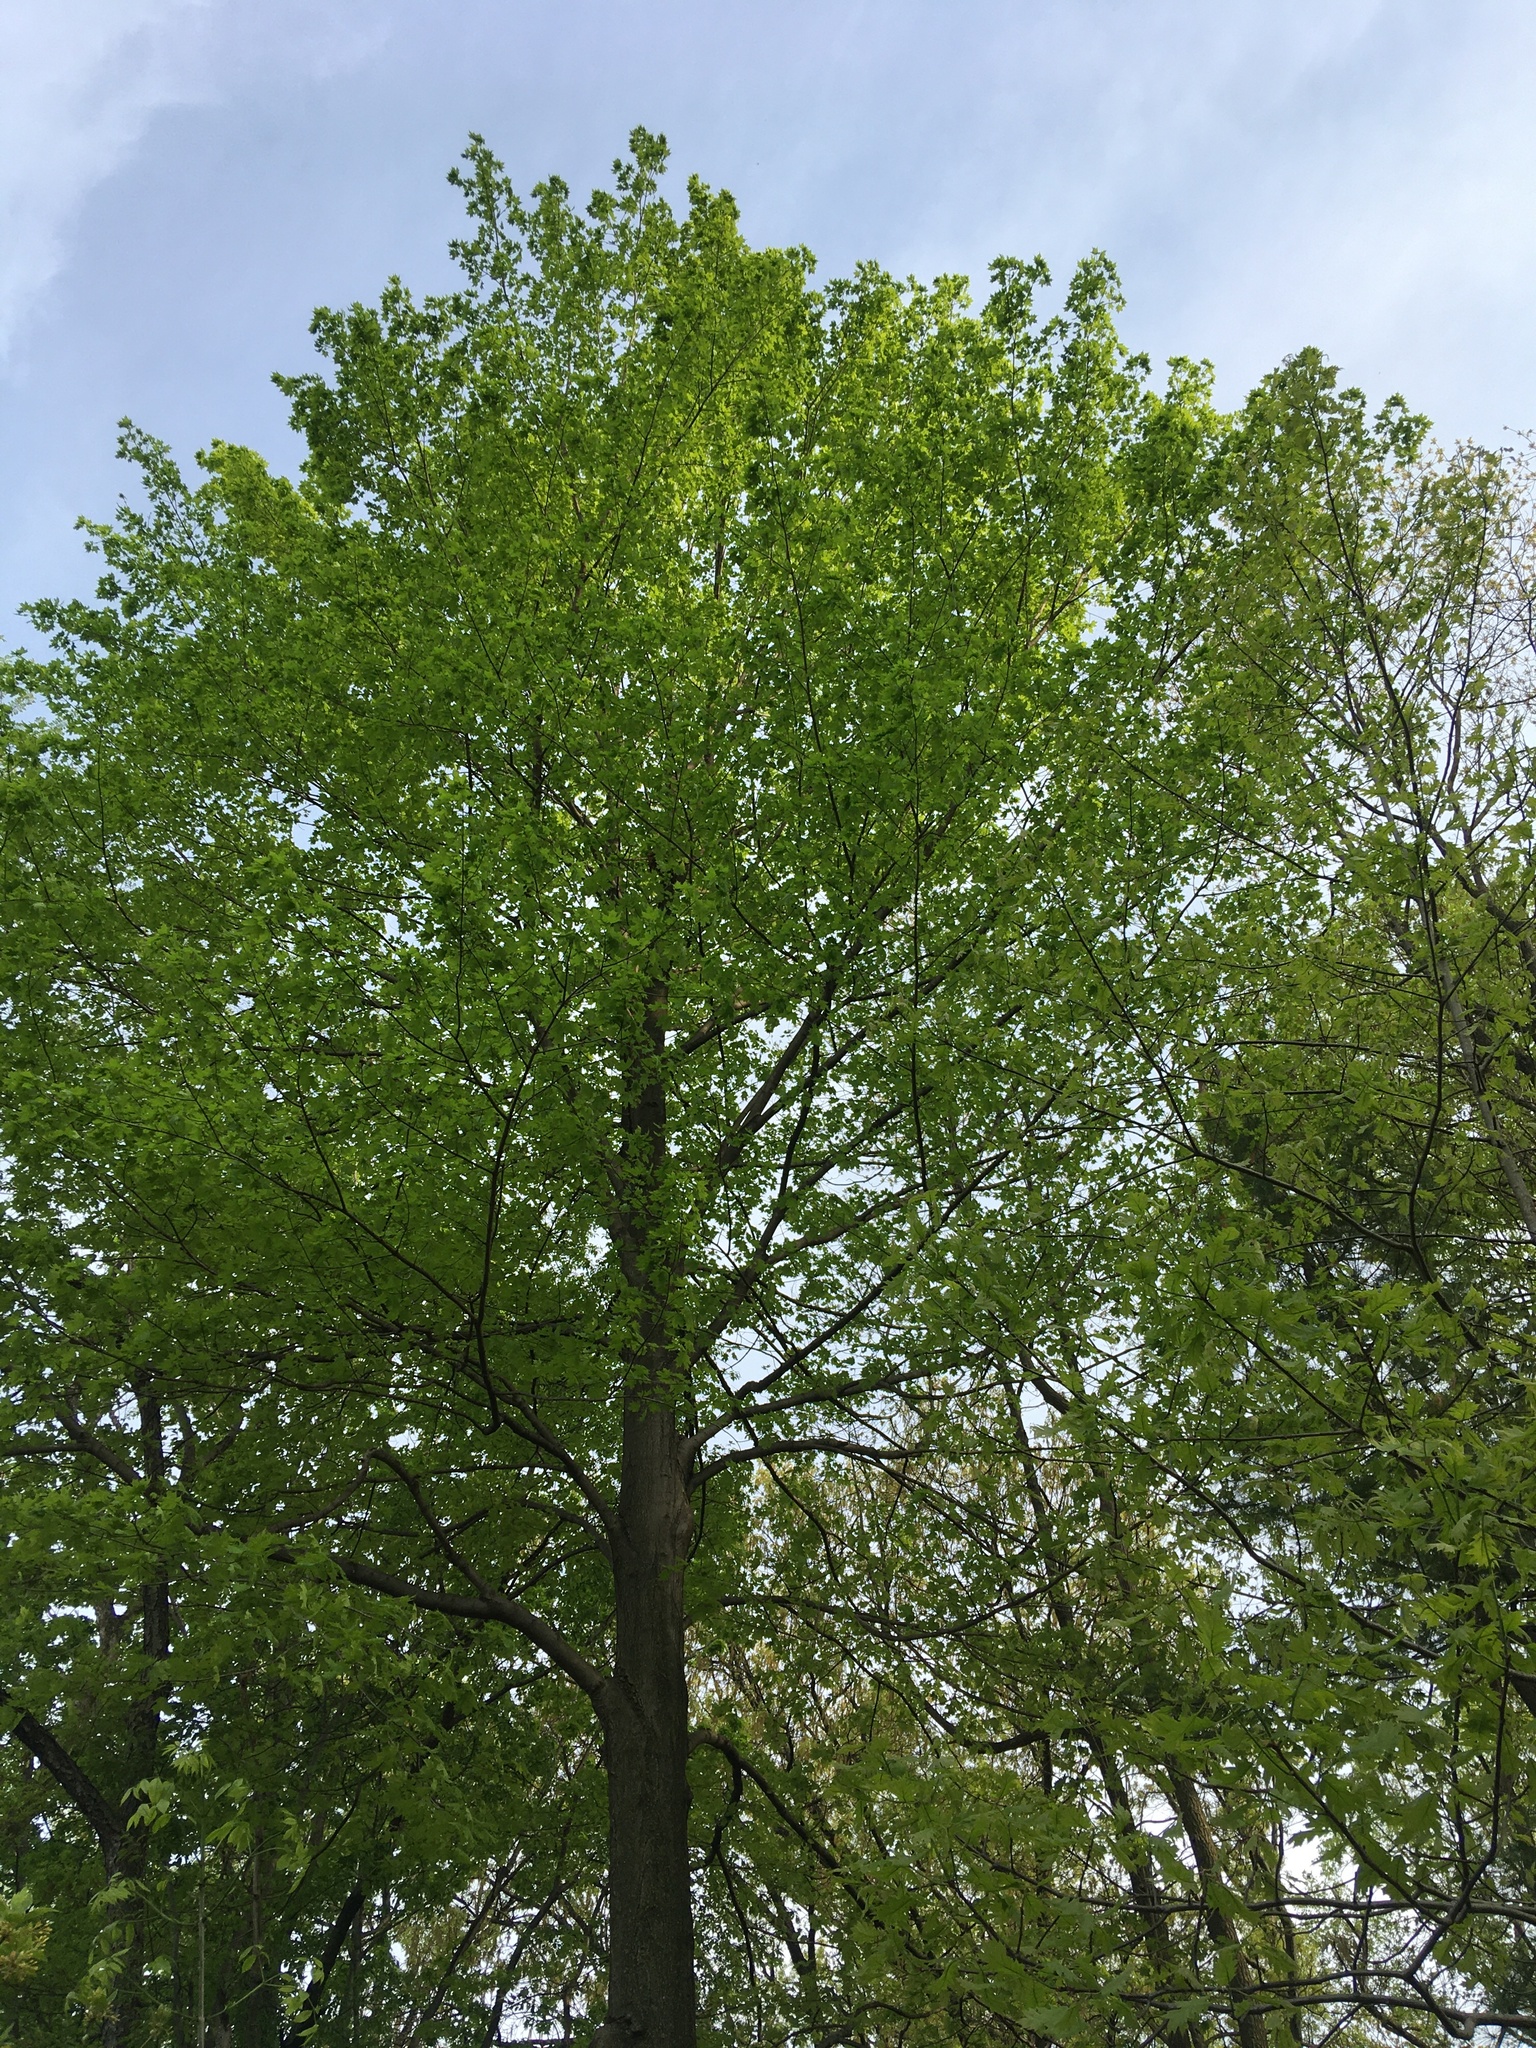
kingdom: Plantae
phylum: Tracheophyta
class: Magnoliopsida
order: Sapindales
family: Sapindaceae
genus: Acer
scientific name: Acer saccharum
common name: Sugar maple
